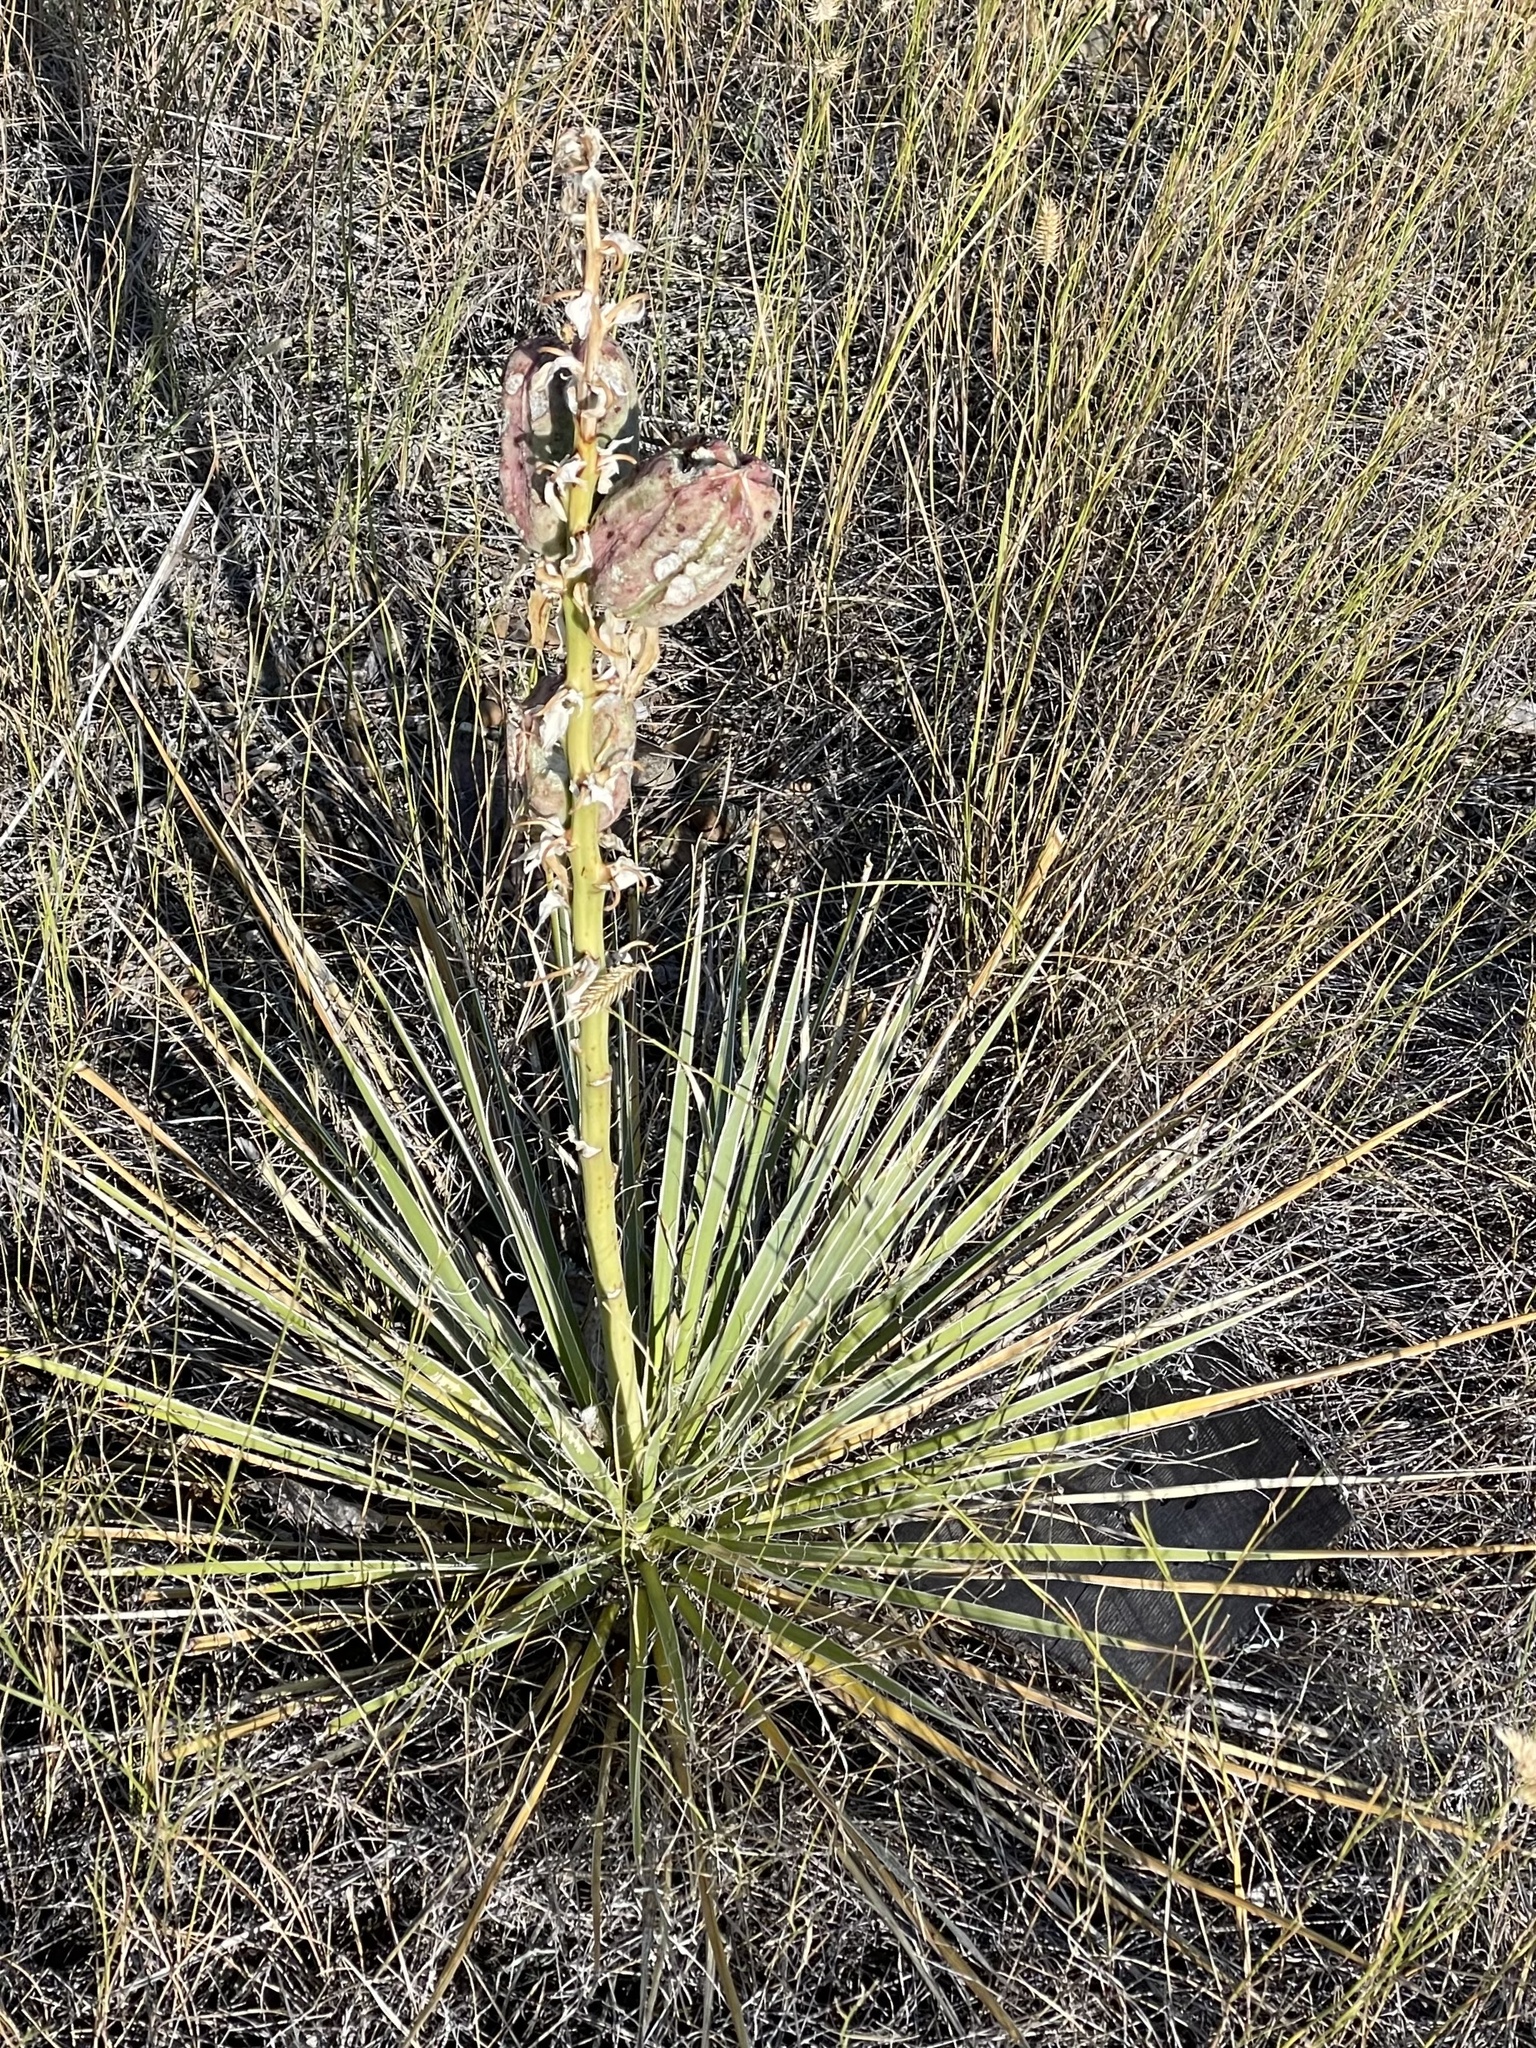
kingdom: Plantae
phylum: Tracheophyta
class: Liliopsida
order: Asparagales
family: Asparagaceae
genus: Yucca
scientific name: Yucca glauca
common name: Great plains yucca
